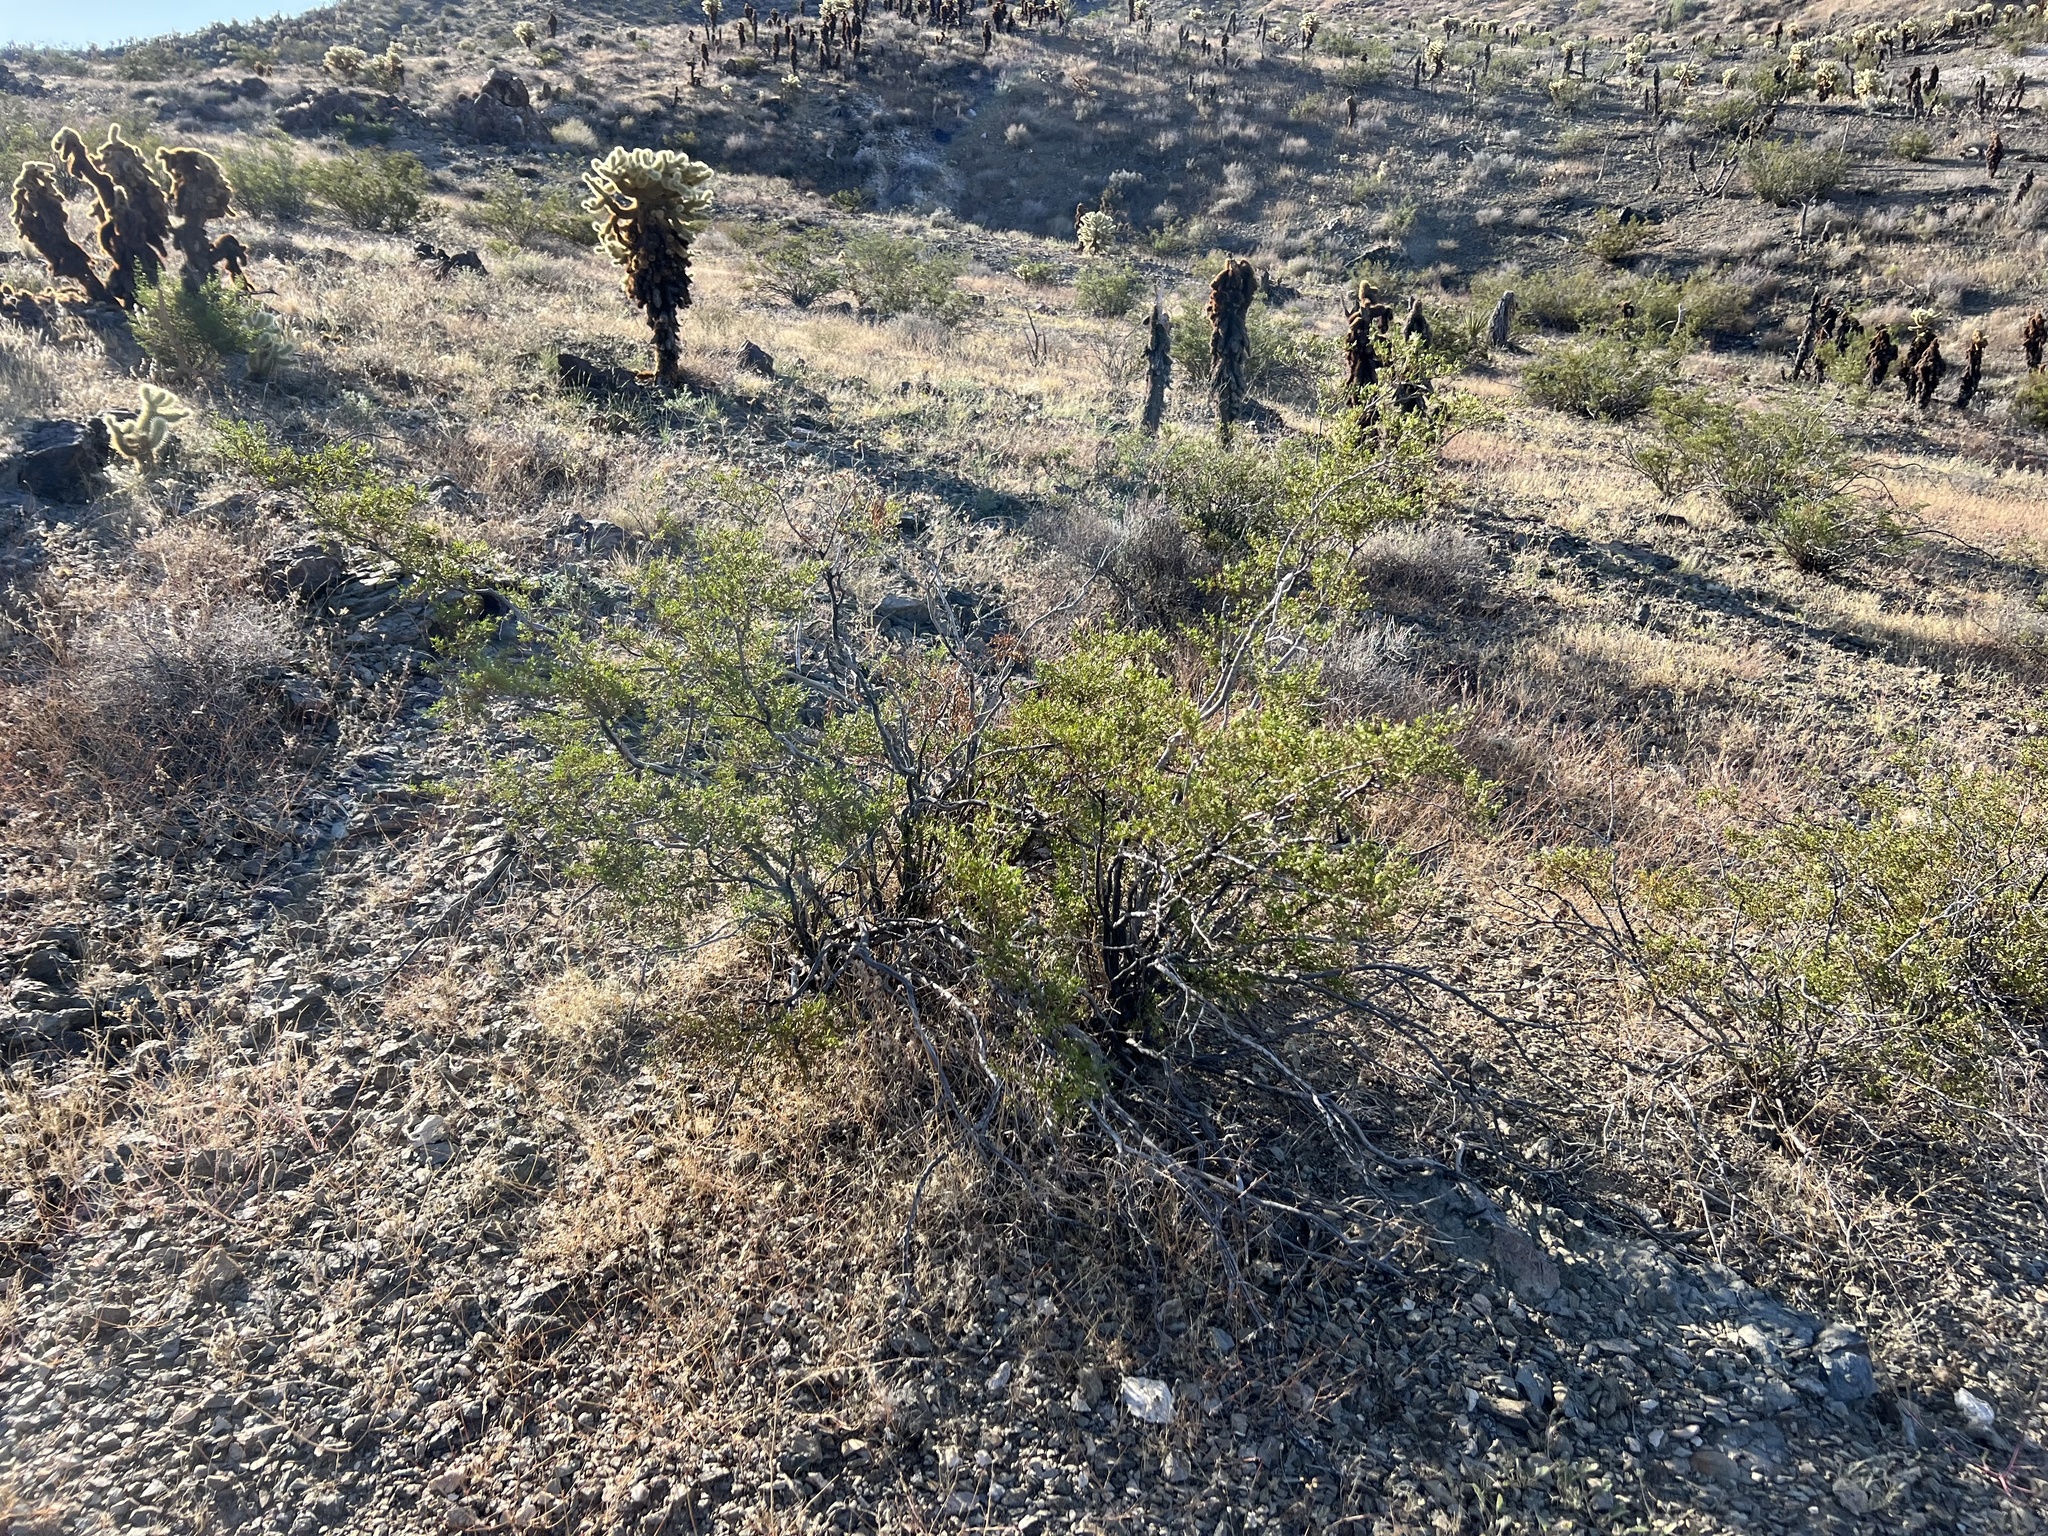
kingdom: Plantae
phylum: Tracheophyta
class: Magnoliopsida
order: Zygophyllales
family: Zygophyllaceae
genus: Larrea
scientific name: Larrea tridentata
